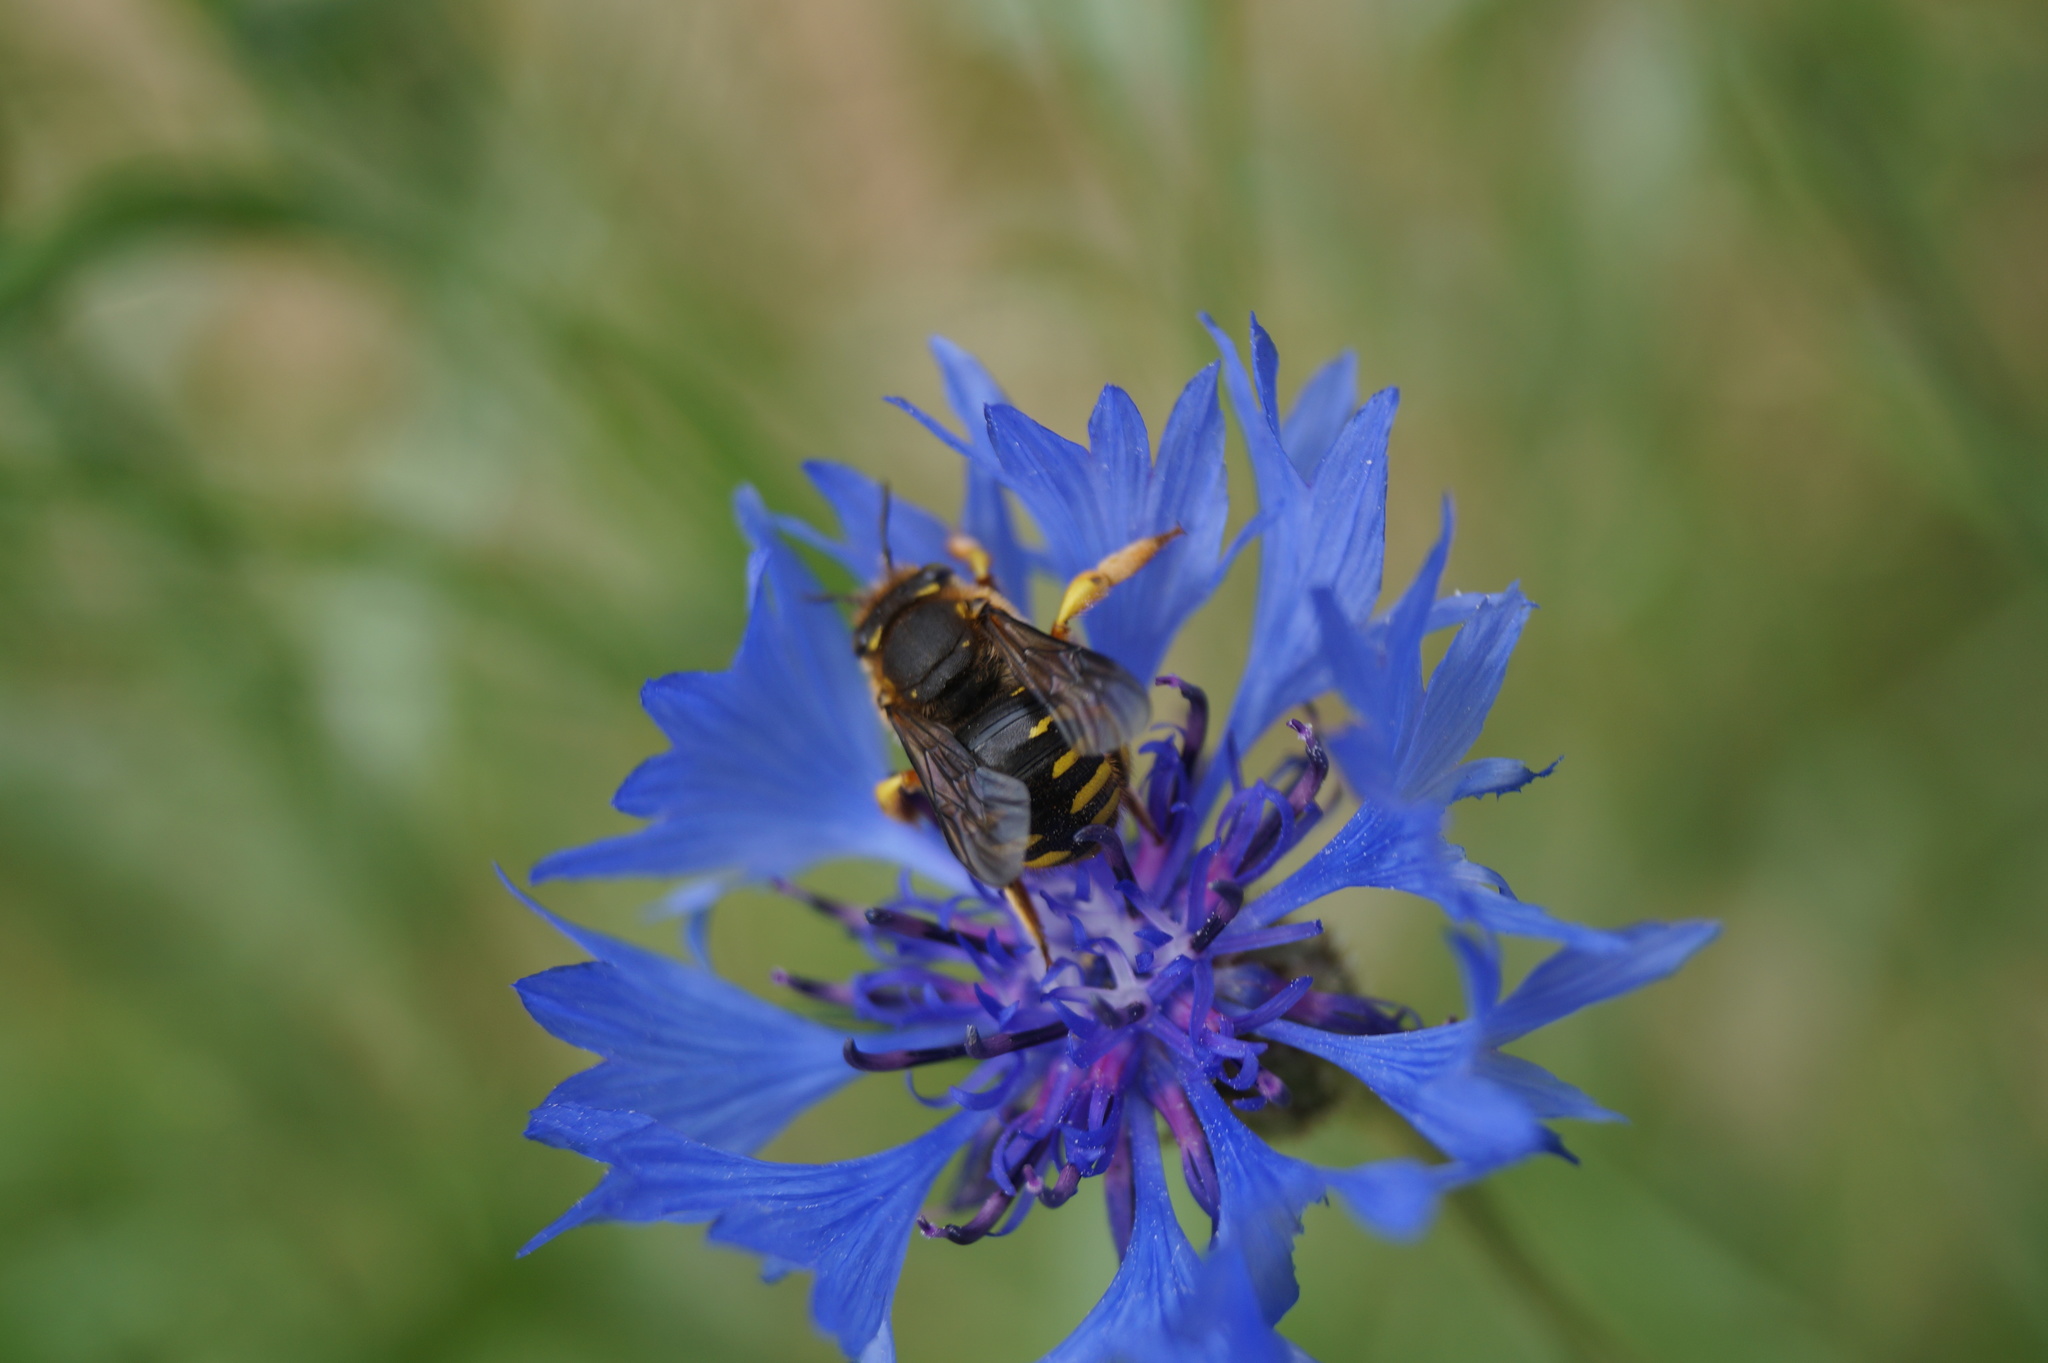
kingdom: Animalia
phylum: Arthropoda
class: Insecta
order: Hymenoptera
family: Megachilidae
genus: Anthidium
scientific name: Anthidium manicatum
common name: Wool carder bee
